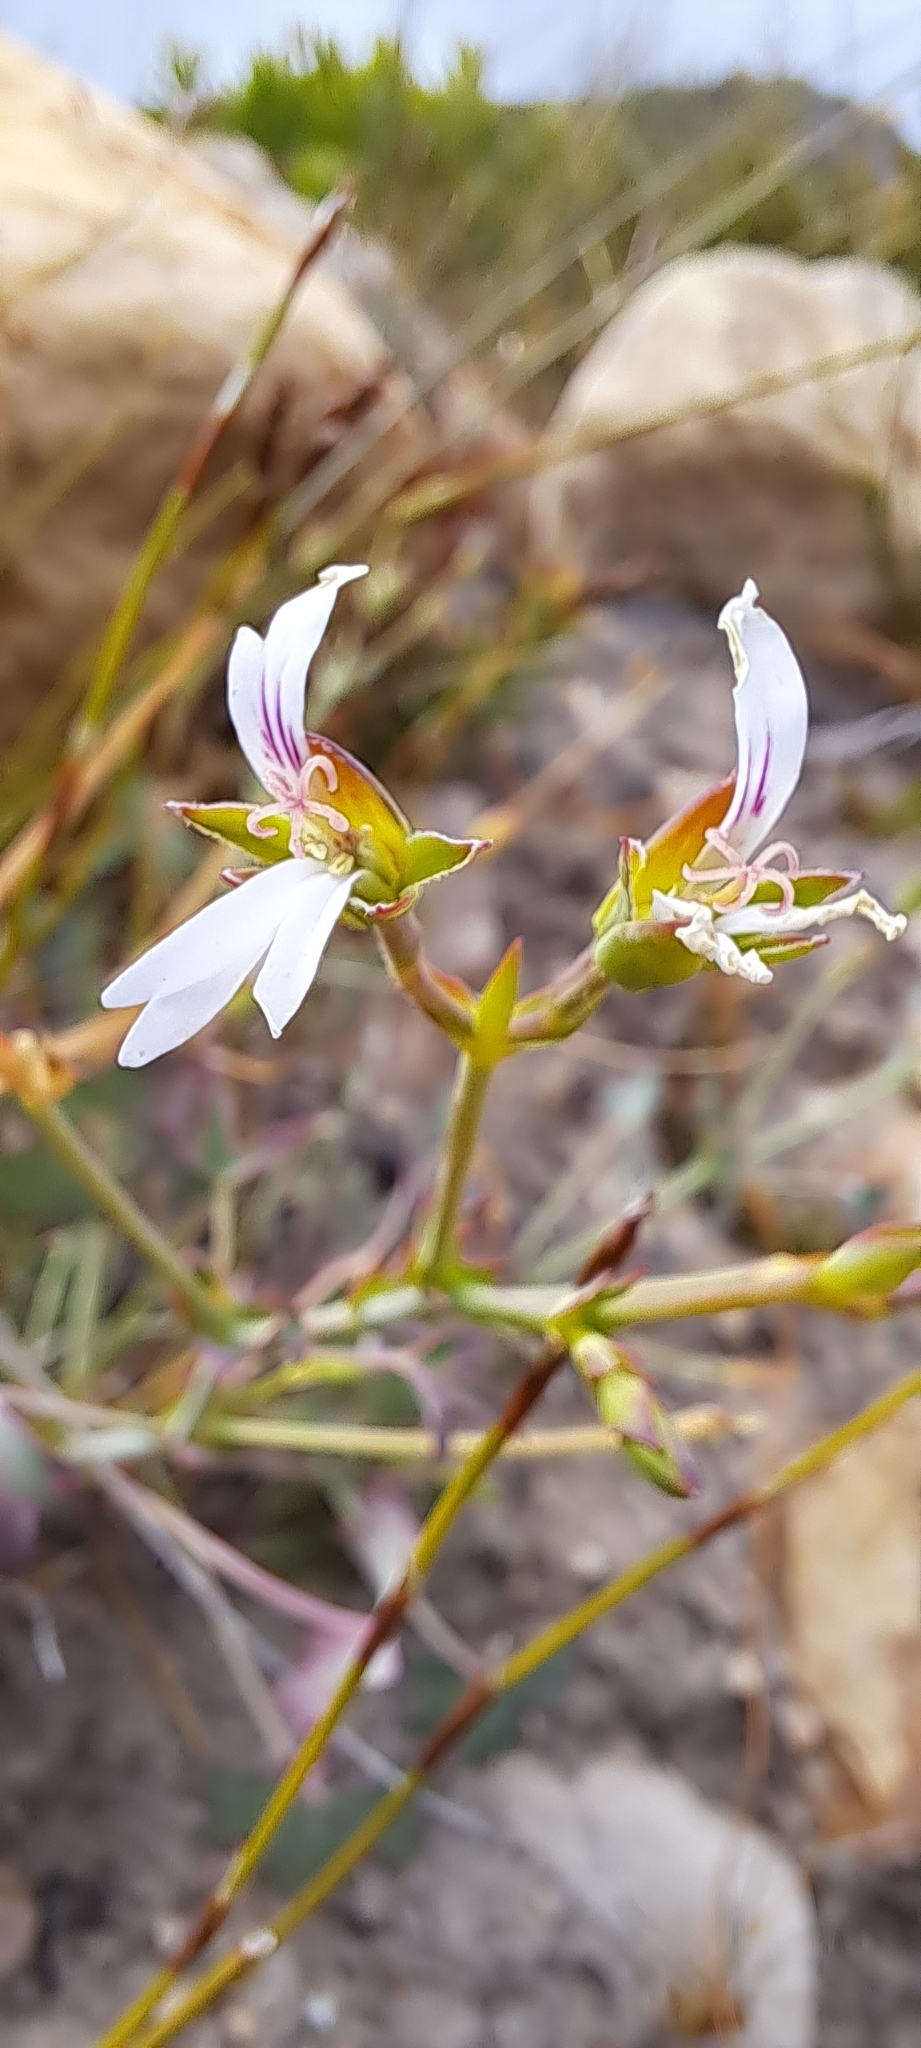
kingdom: Plantae
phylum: Tracheophyta
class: Magnoliopsida
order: Geraniales
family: Geraniaceae
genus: Pelargonium
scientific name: Pelargonium tabulare
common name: Table mountain pelargonium
